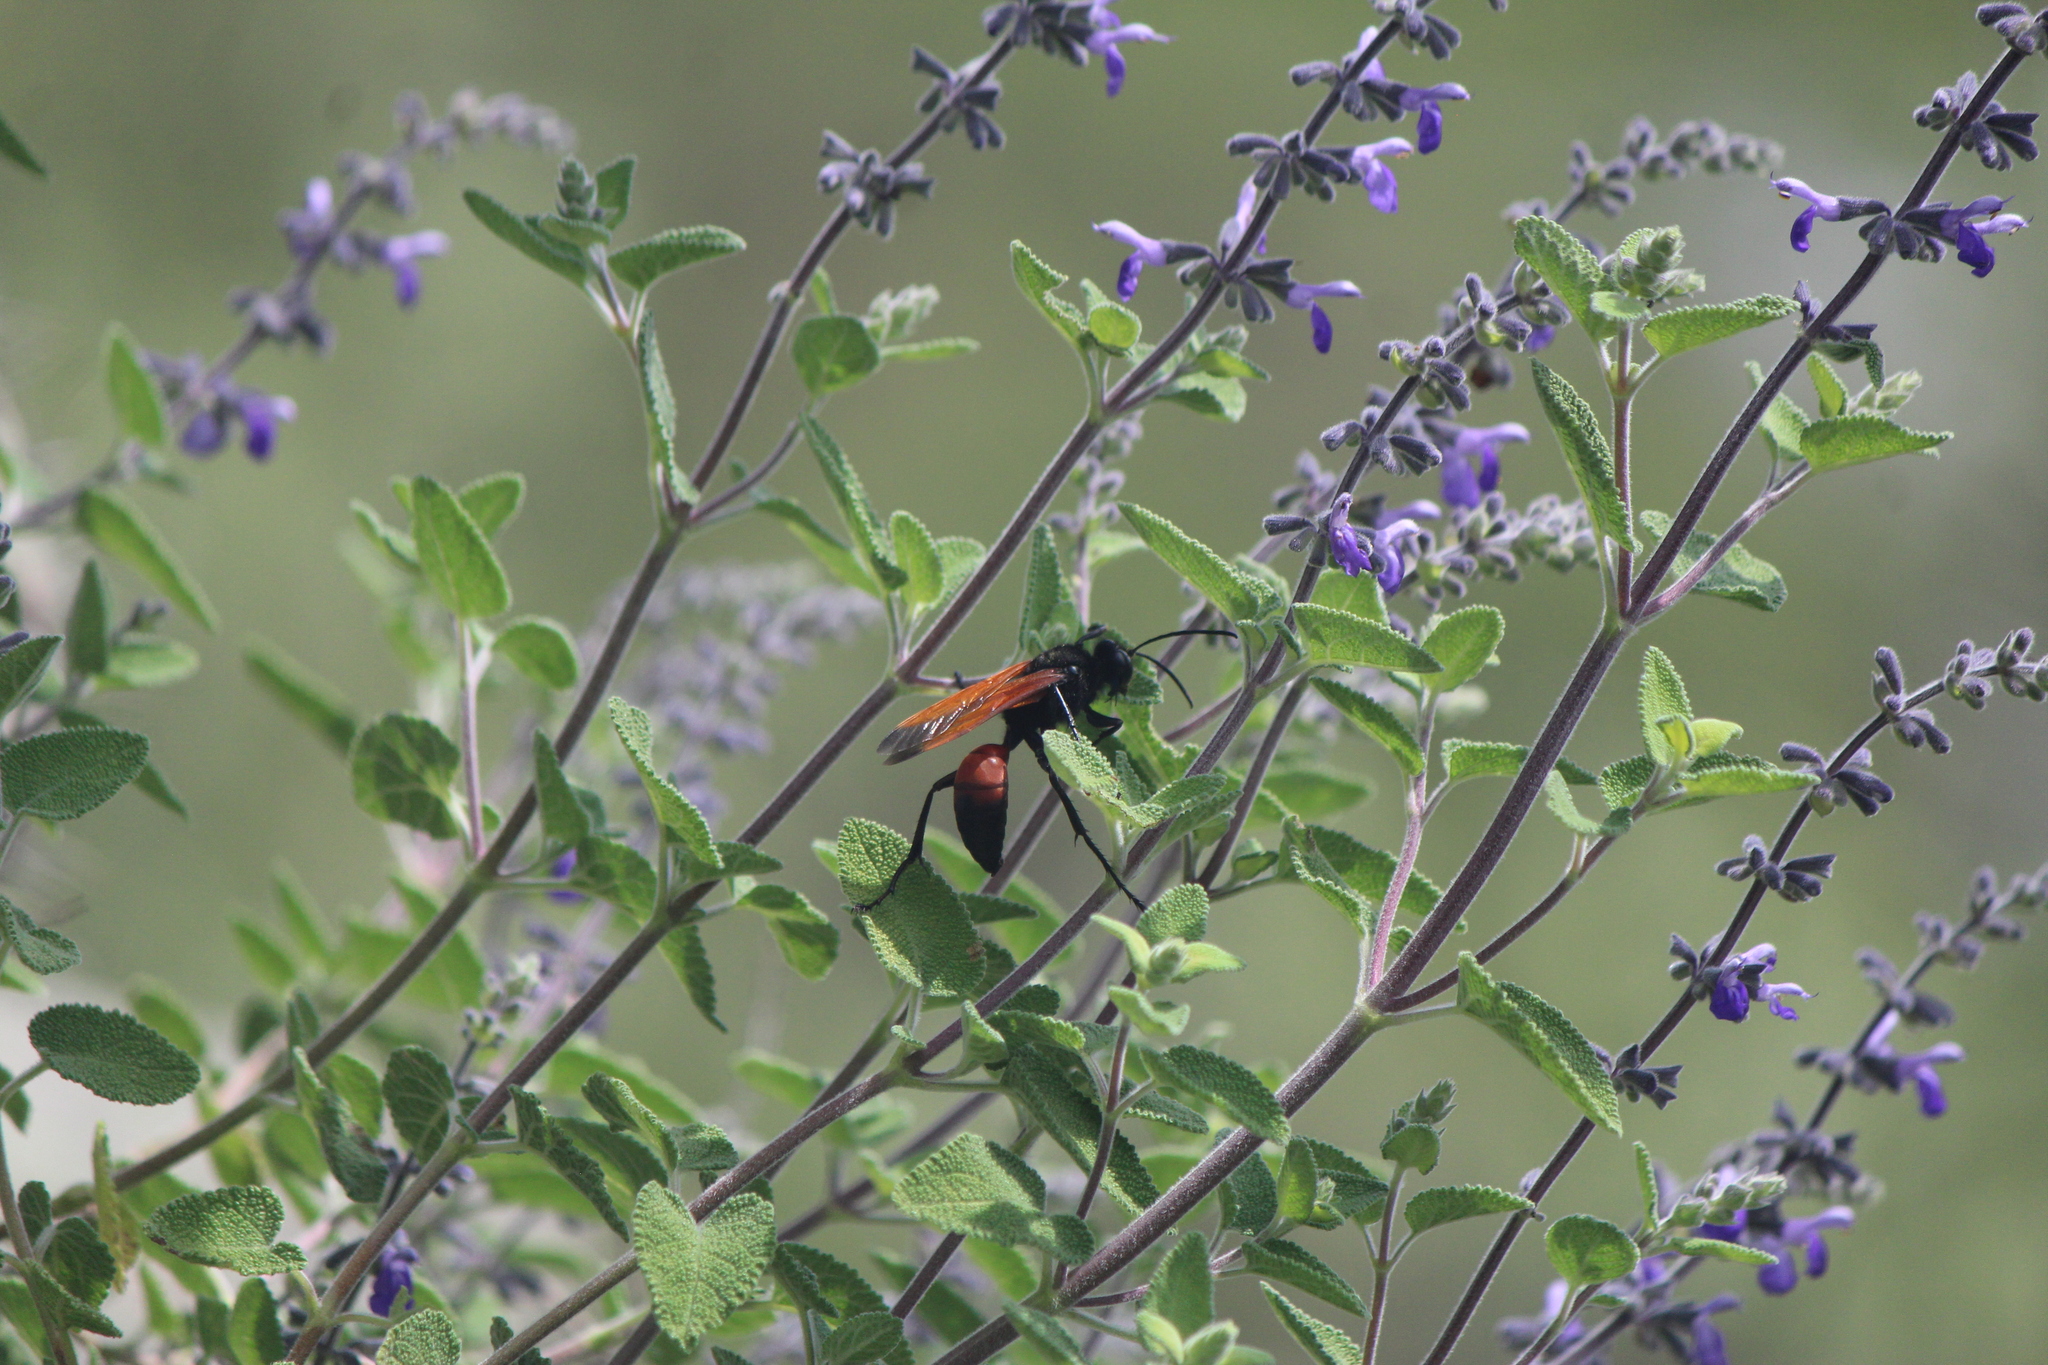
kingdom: Animalia
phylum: Arthropoda
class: Insecta
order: Hymenoptera
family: Sphecidae
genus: Sphex
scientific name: Sphex tepanecus
